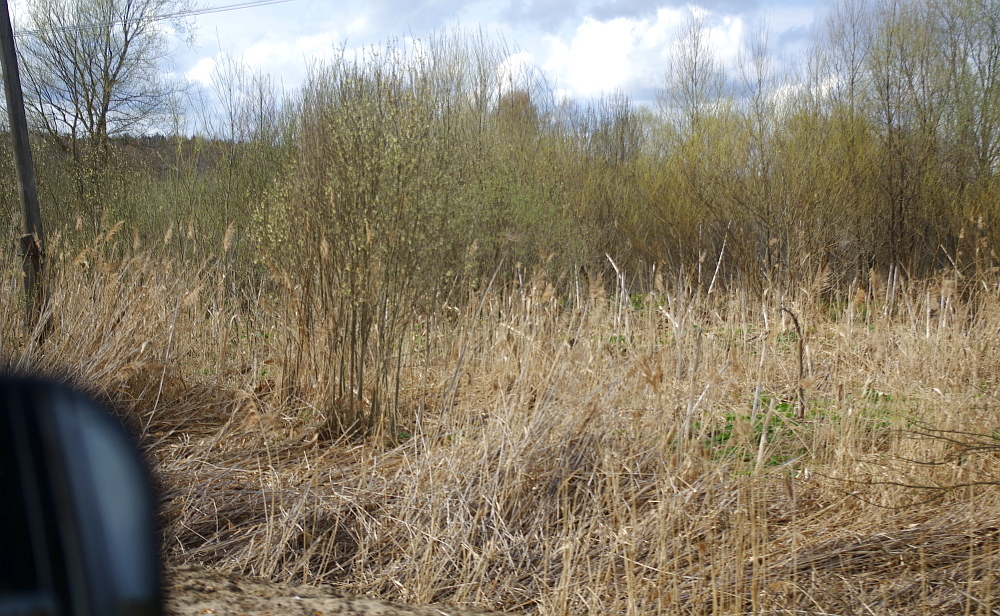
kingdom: Plantae
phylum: Tracheophyta
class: Liliopsida
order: Poales
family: Poaceae
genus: Phragmites
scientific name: Phragmites australis
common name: Common reed
